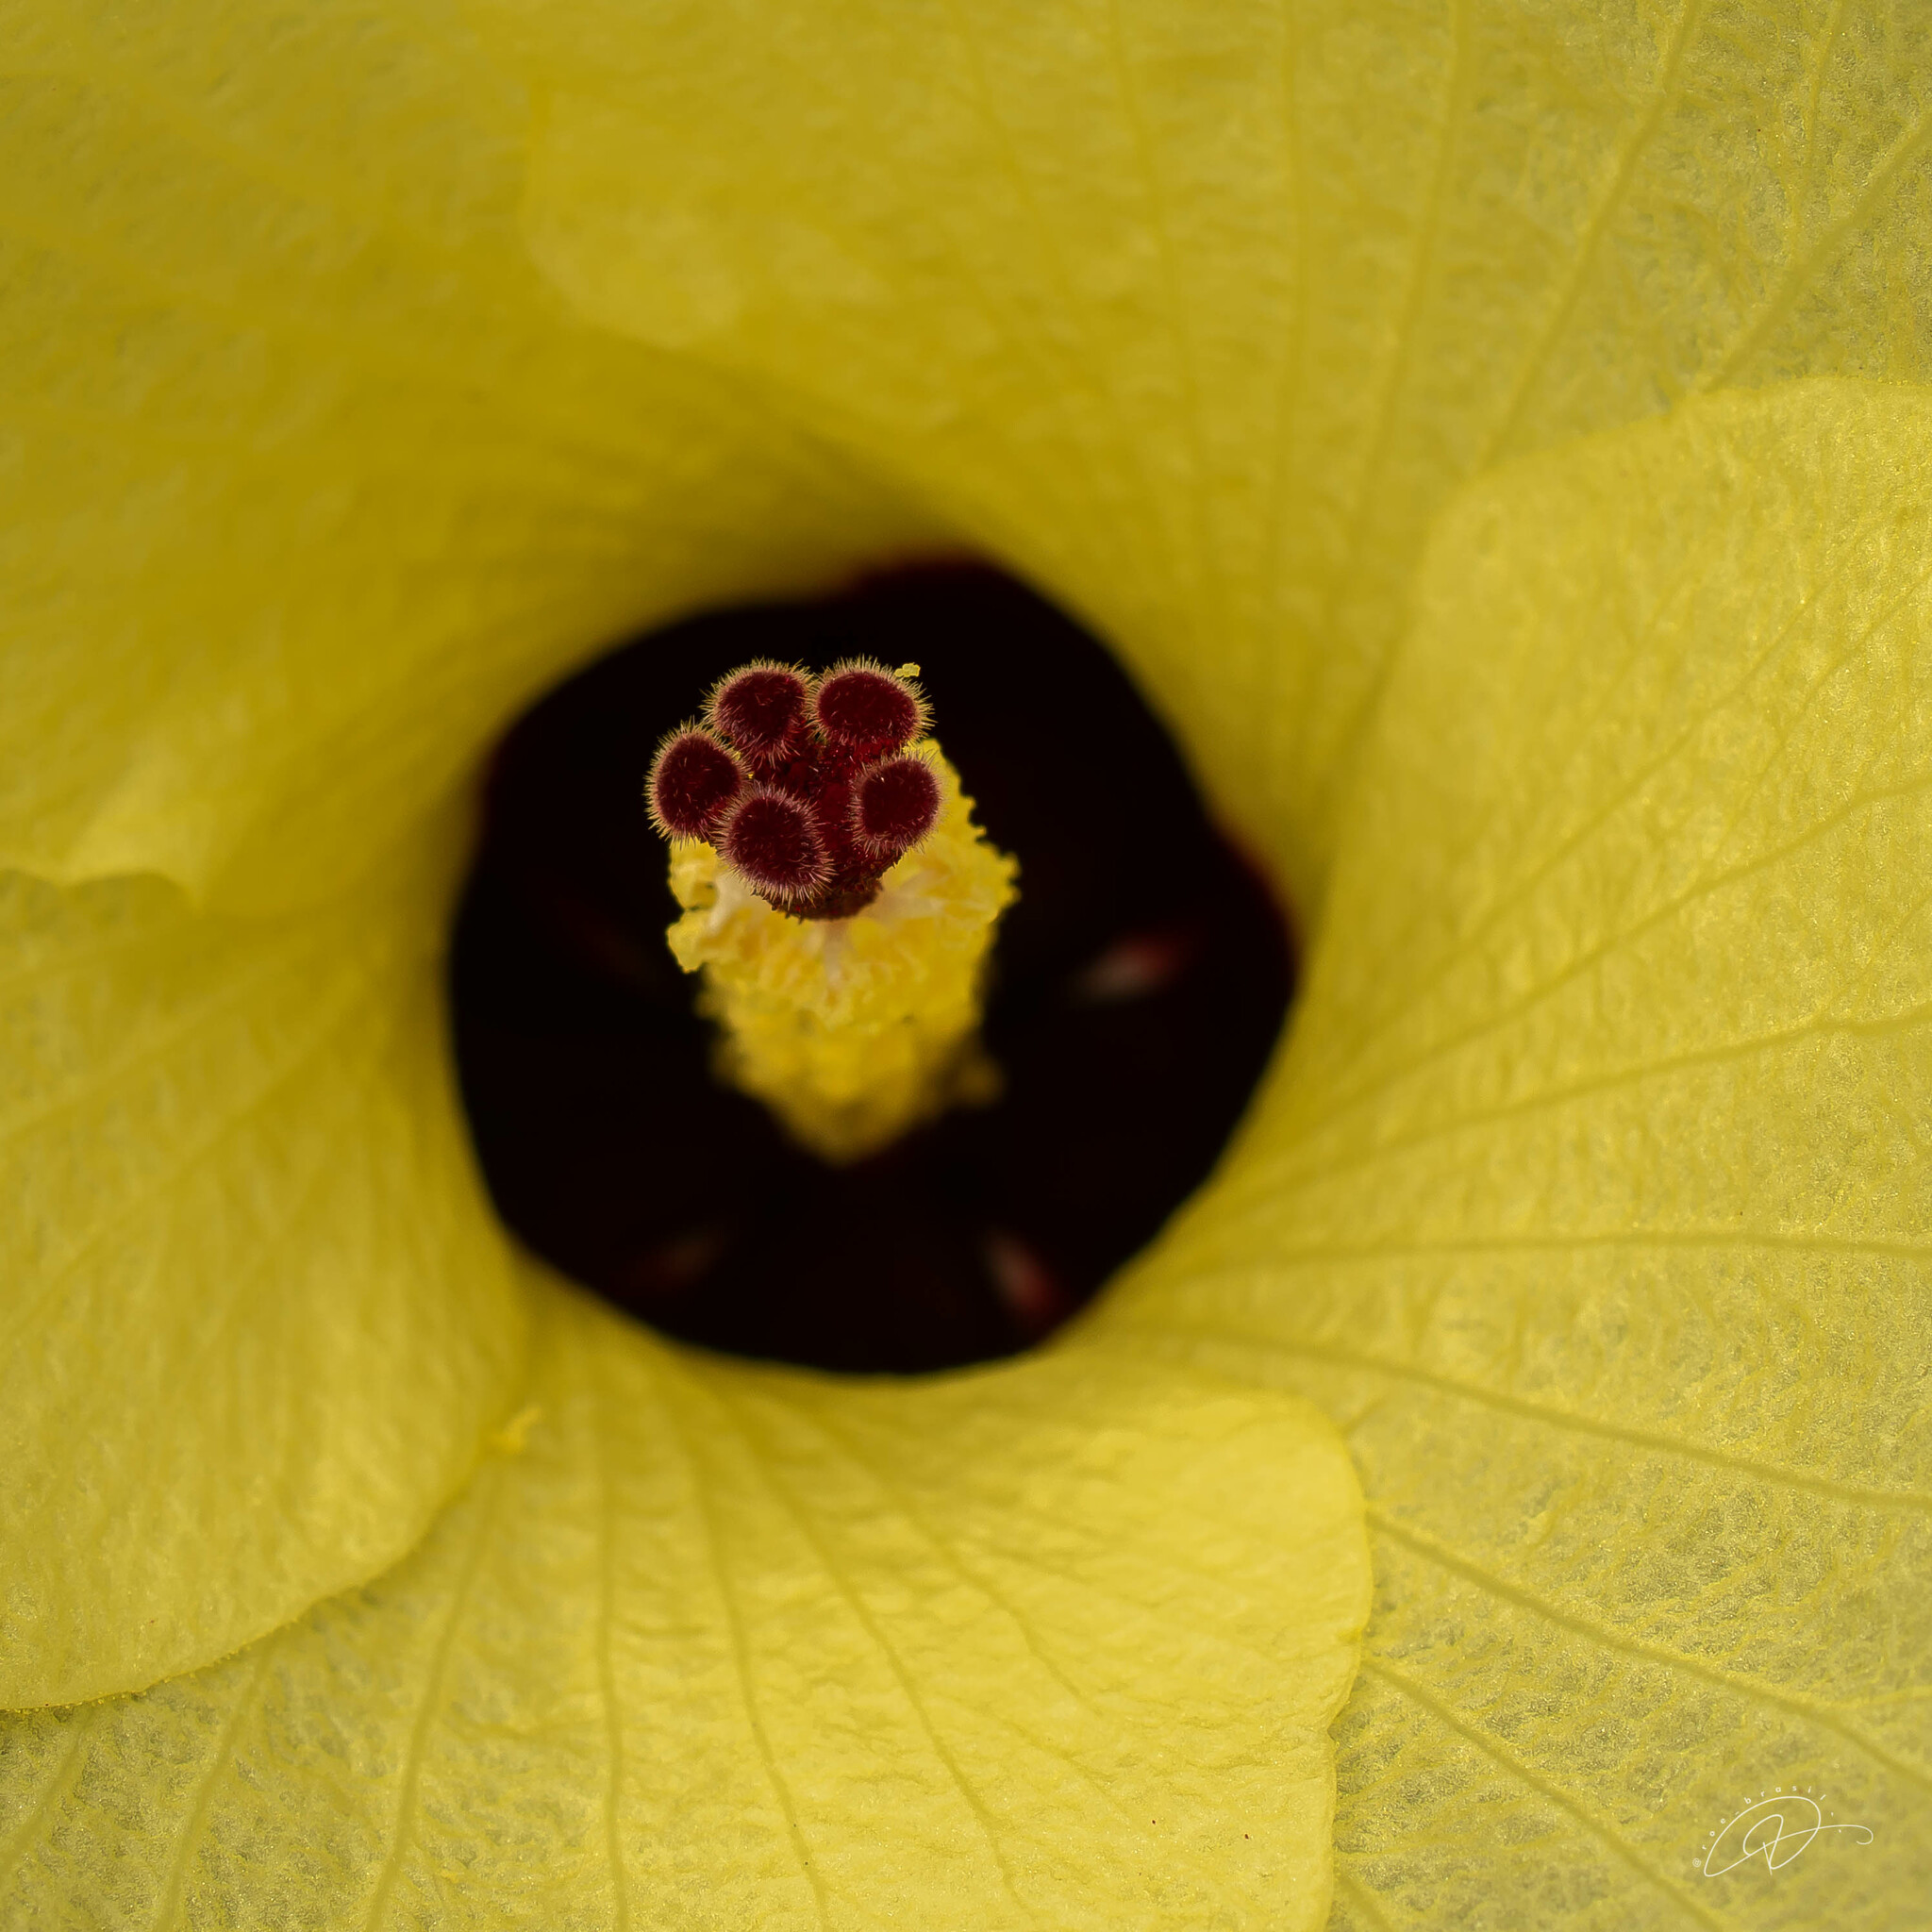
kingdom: Plantae
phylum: Tracheophyta
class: Magnoliopsida
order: Malvales
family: Malvaceae
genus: Talipariti
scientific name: Talipariti tiliaceum
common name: Sea hibiscus
